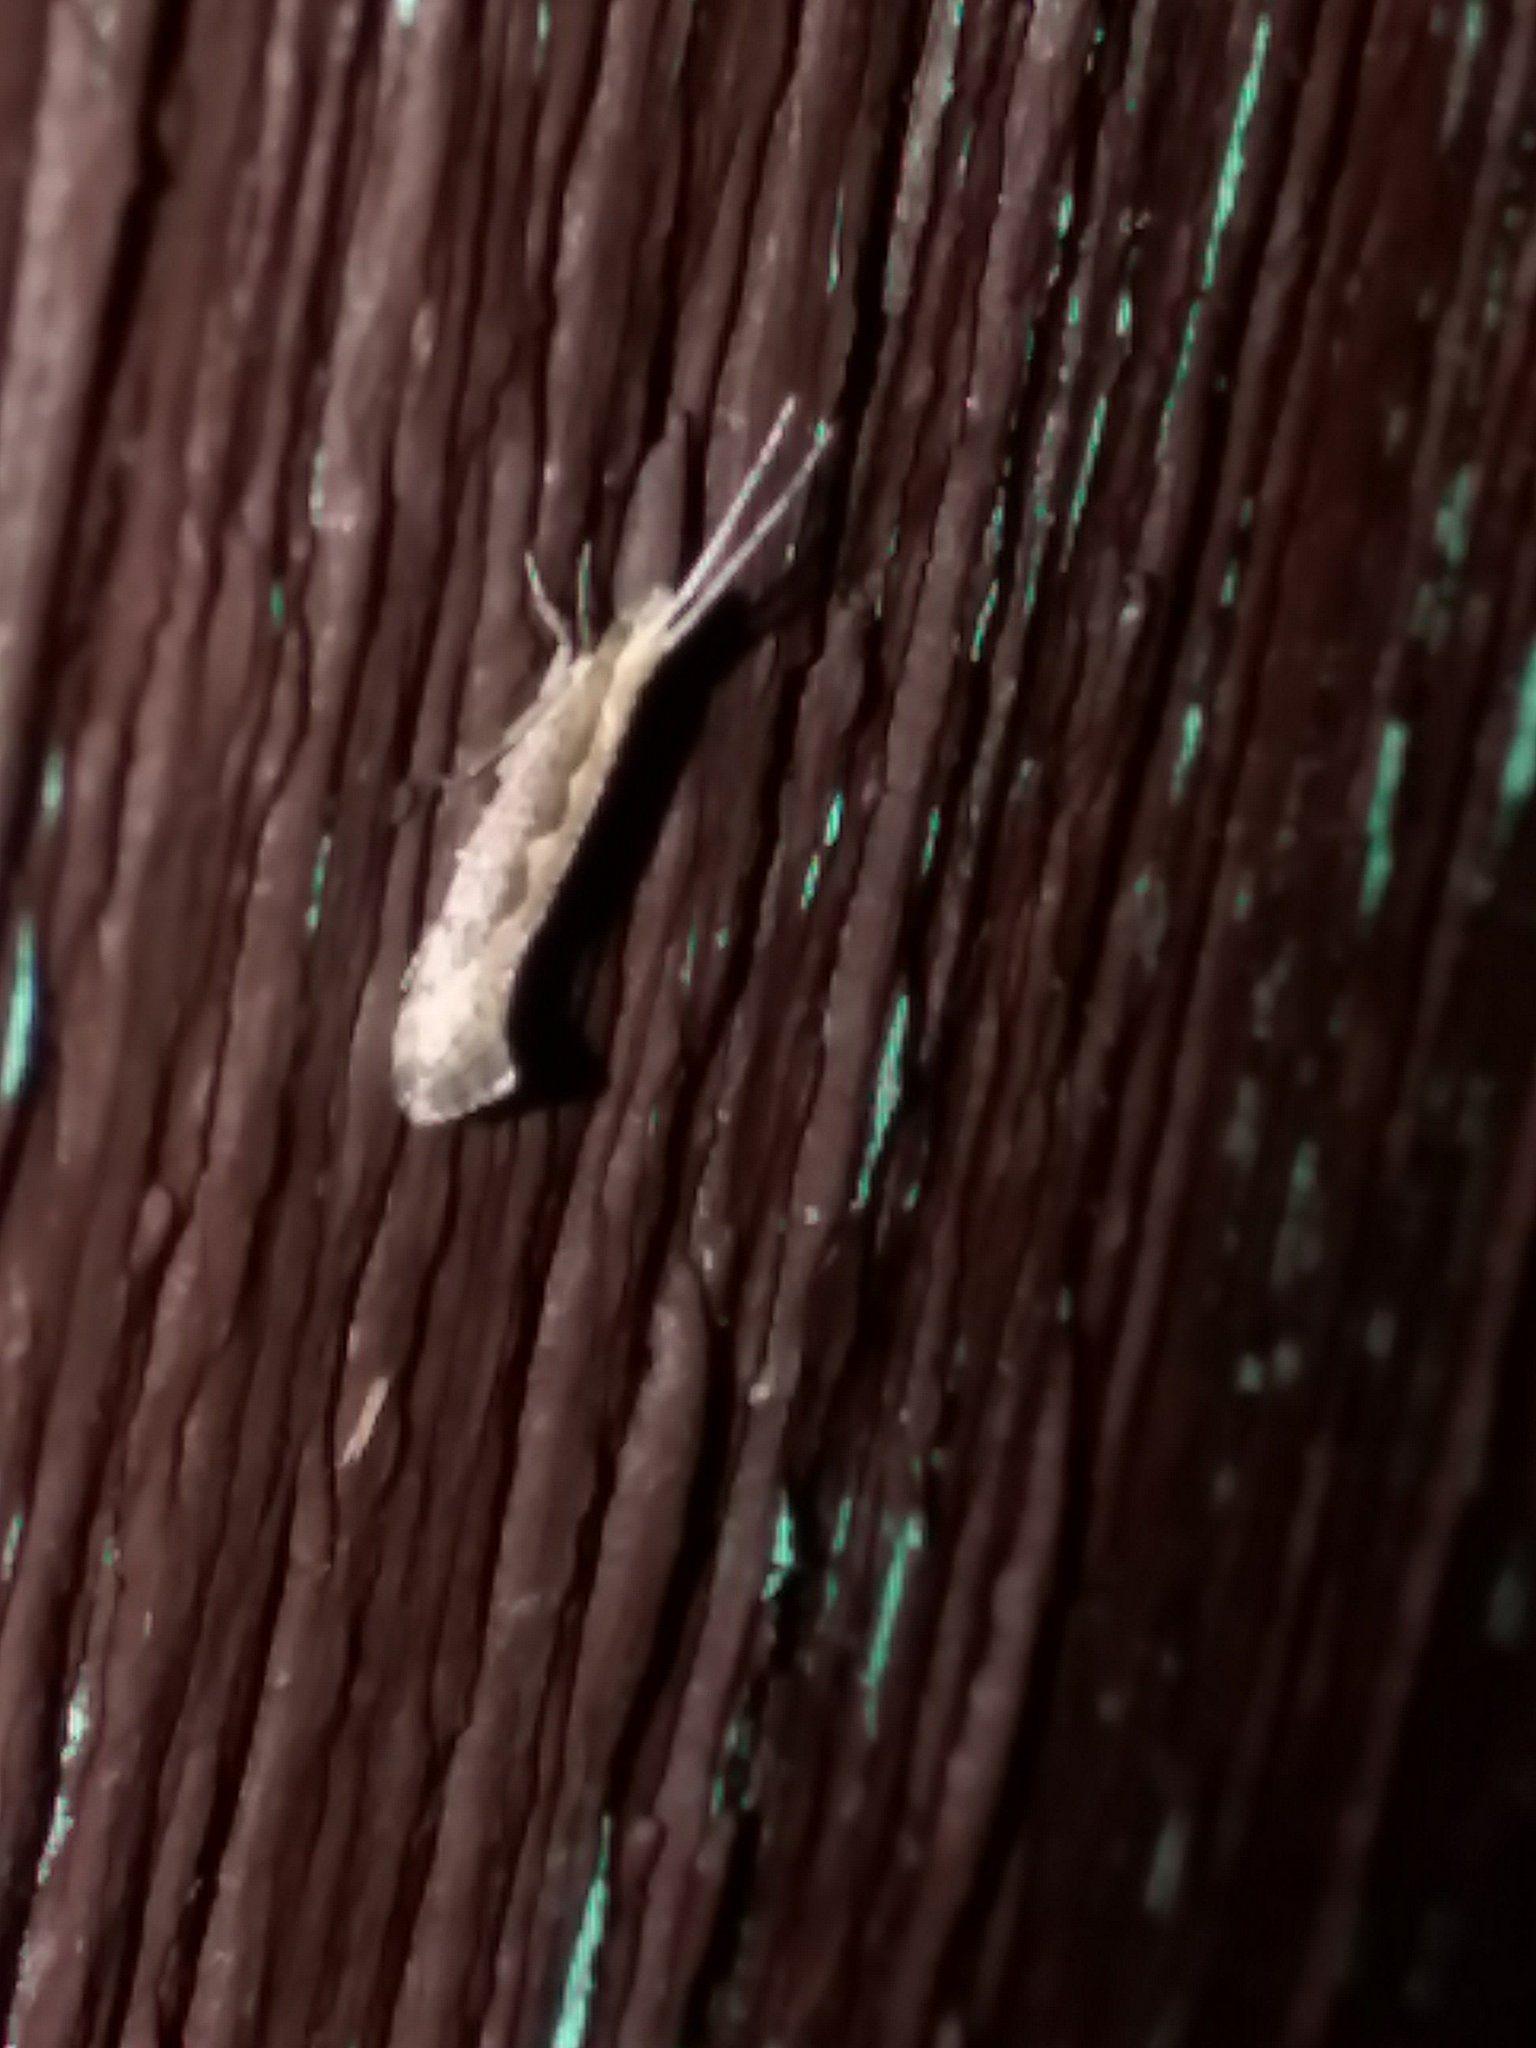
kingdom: Animalia
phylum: Arthropoda
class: Insecta
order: Lepidoptera
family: Plutellidae
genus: Plutella
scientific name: Plutella xylostella
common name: Diamond-back moth
